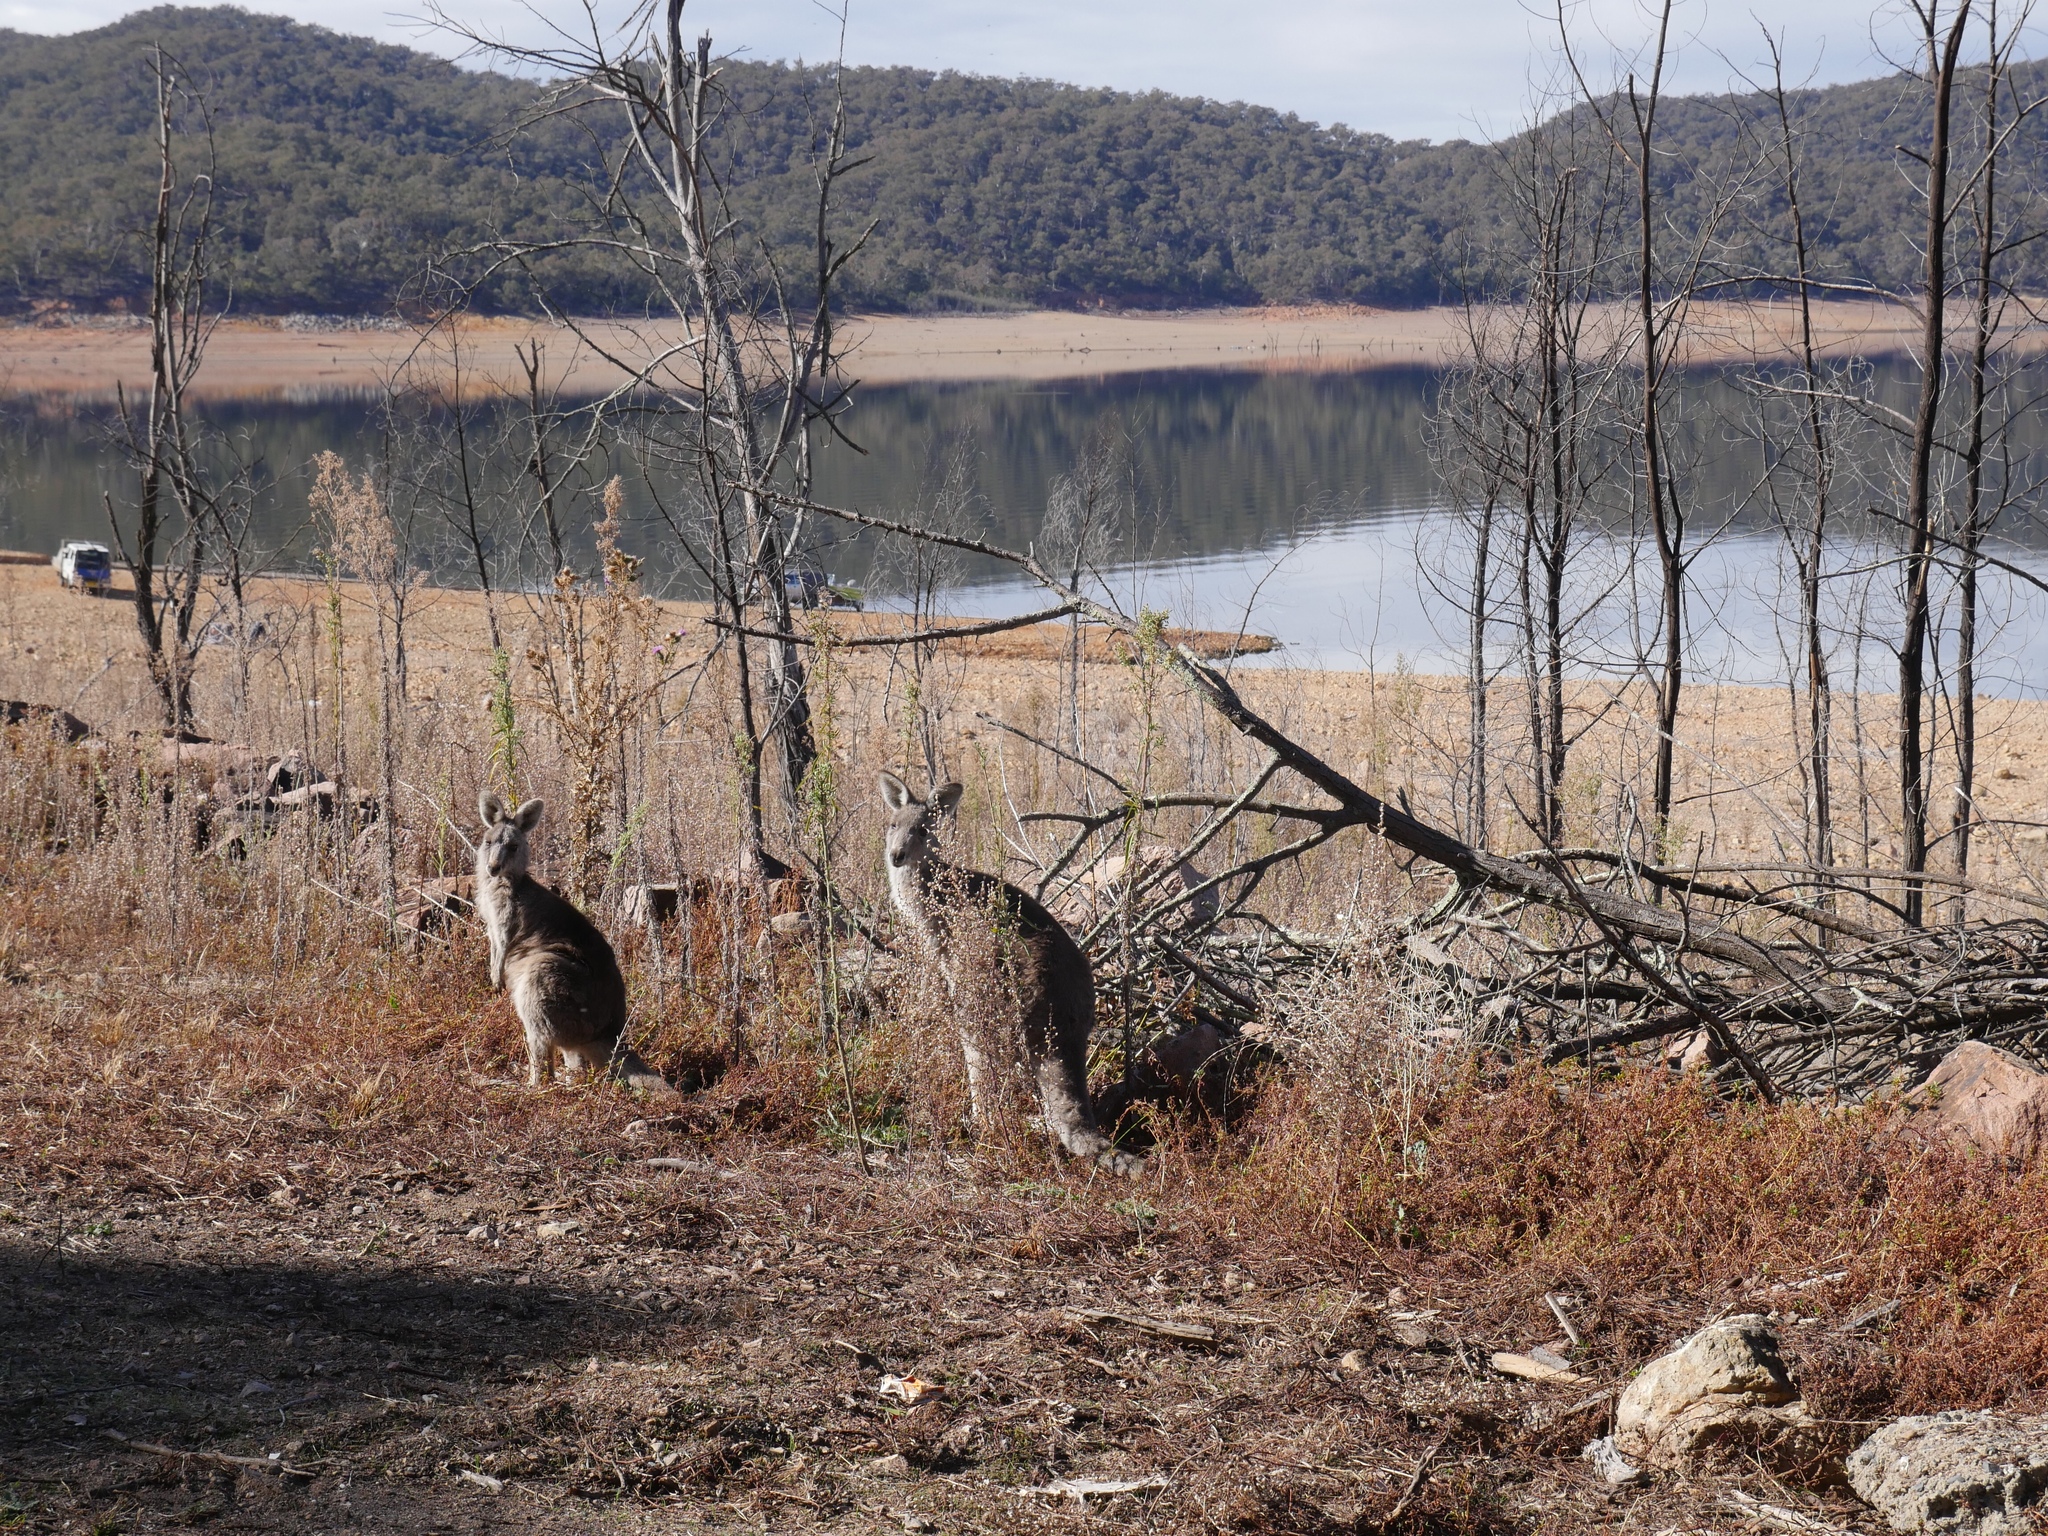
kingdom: Animalia
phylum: Chordata
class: Mammalia
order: Diprotodontia
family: Macropodidae
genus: Macropus
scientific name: Macropus giganteus
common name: Eastern grey kangaroo
